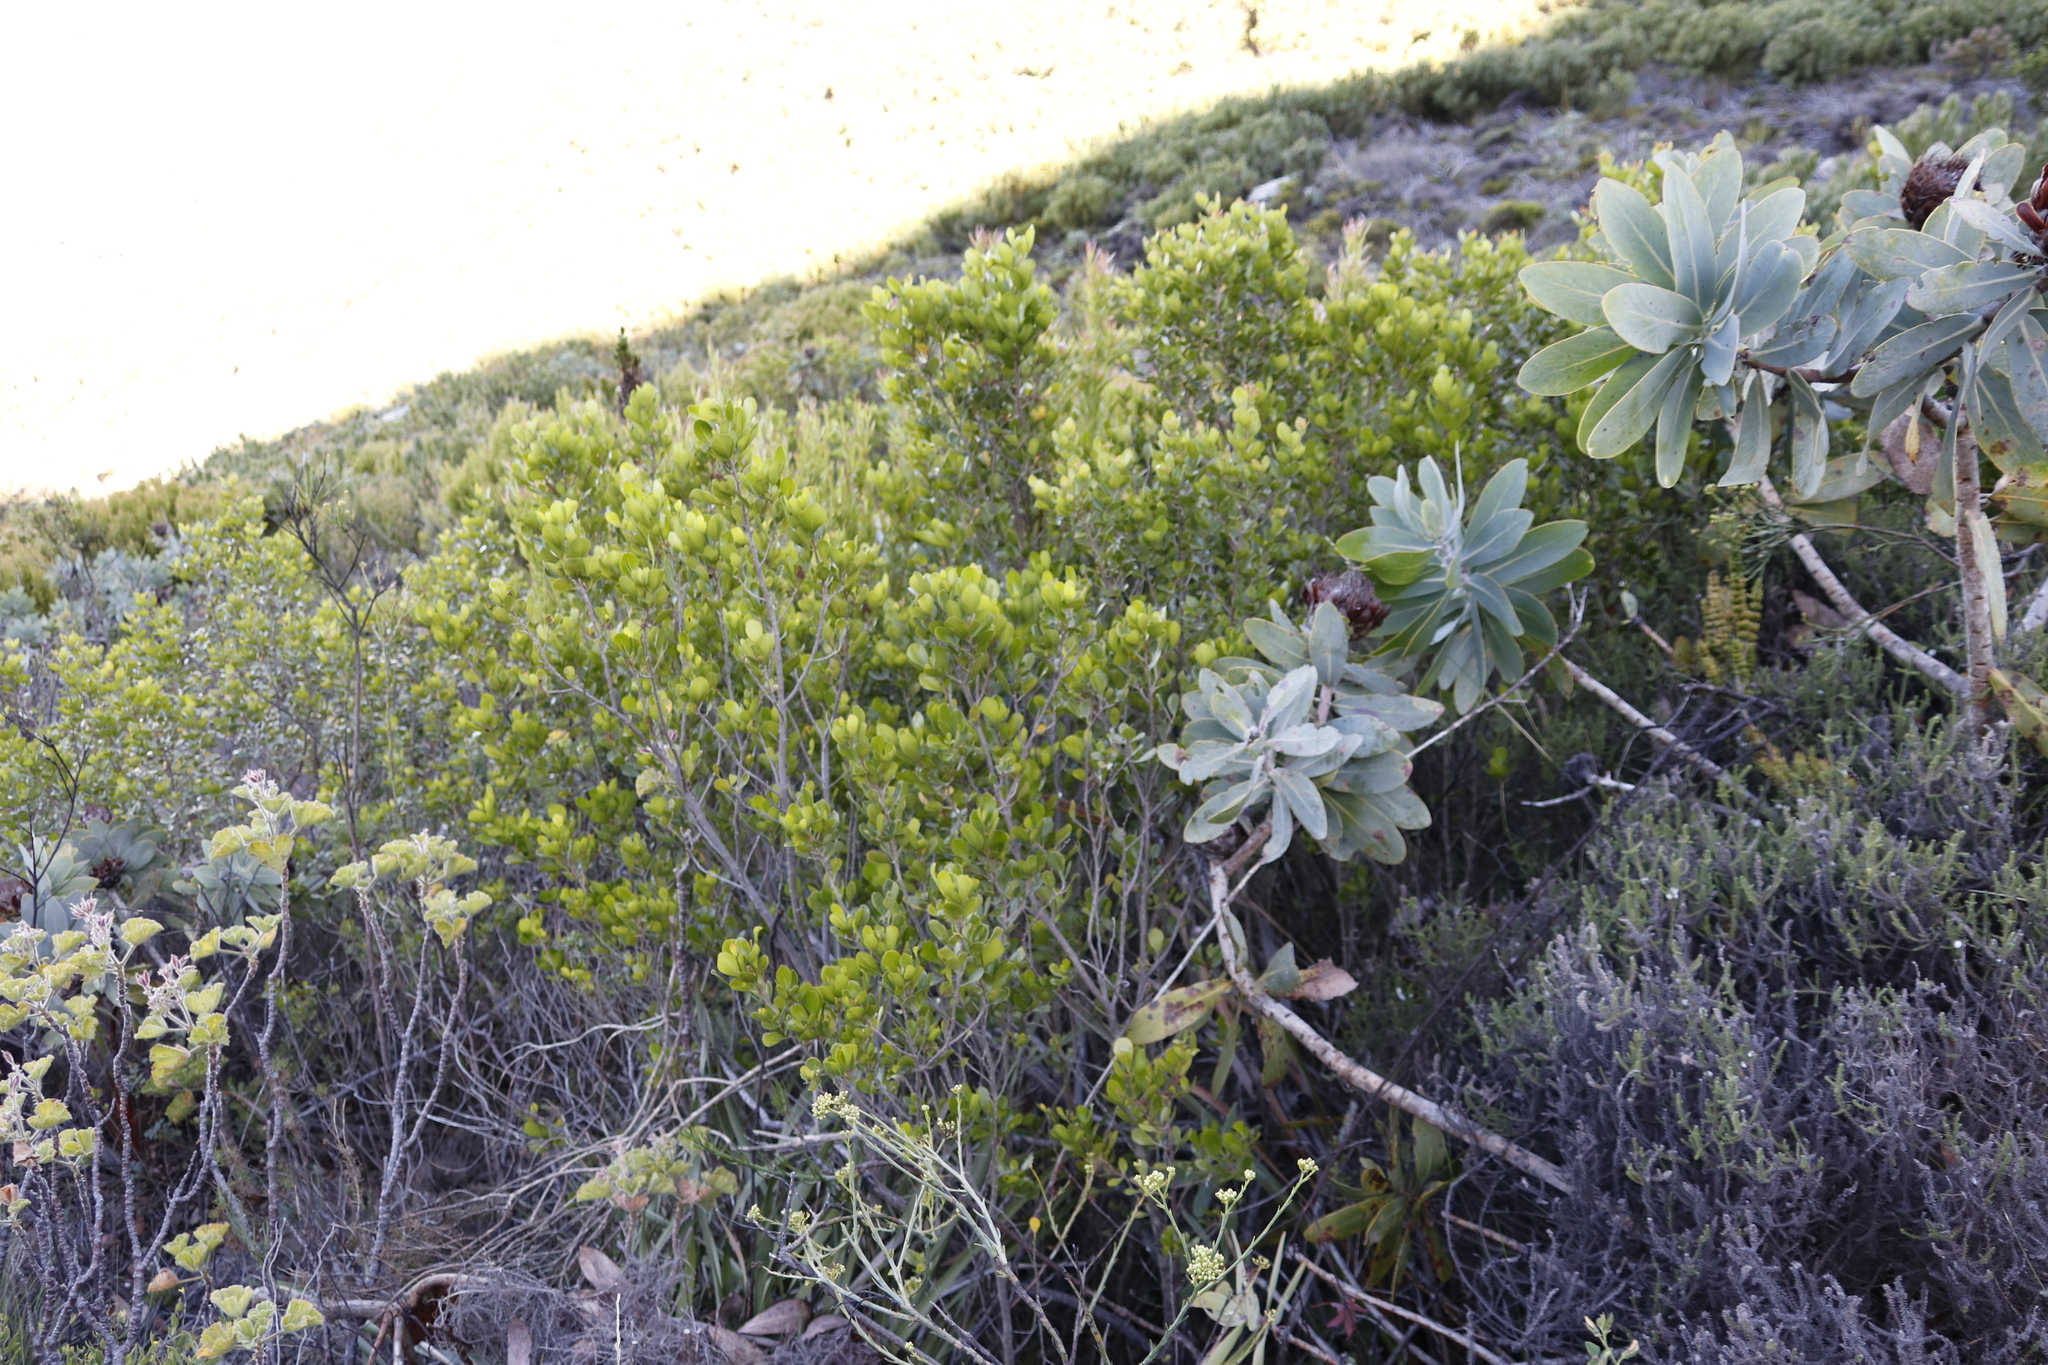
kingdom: Plantae
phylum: Tracheophyta
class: Magnoliopsida
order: Sapindales
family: Anacardiaceae
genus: Searsia
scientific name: Searsia lucida
